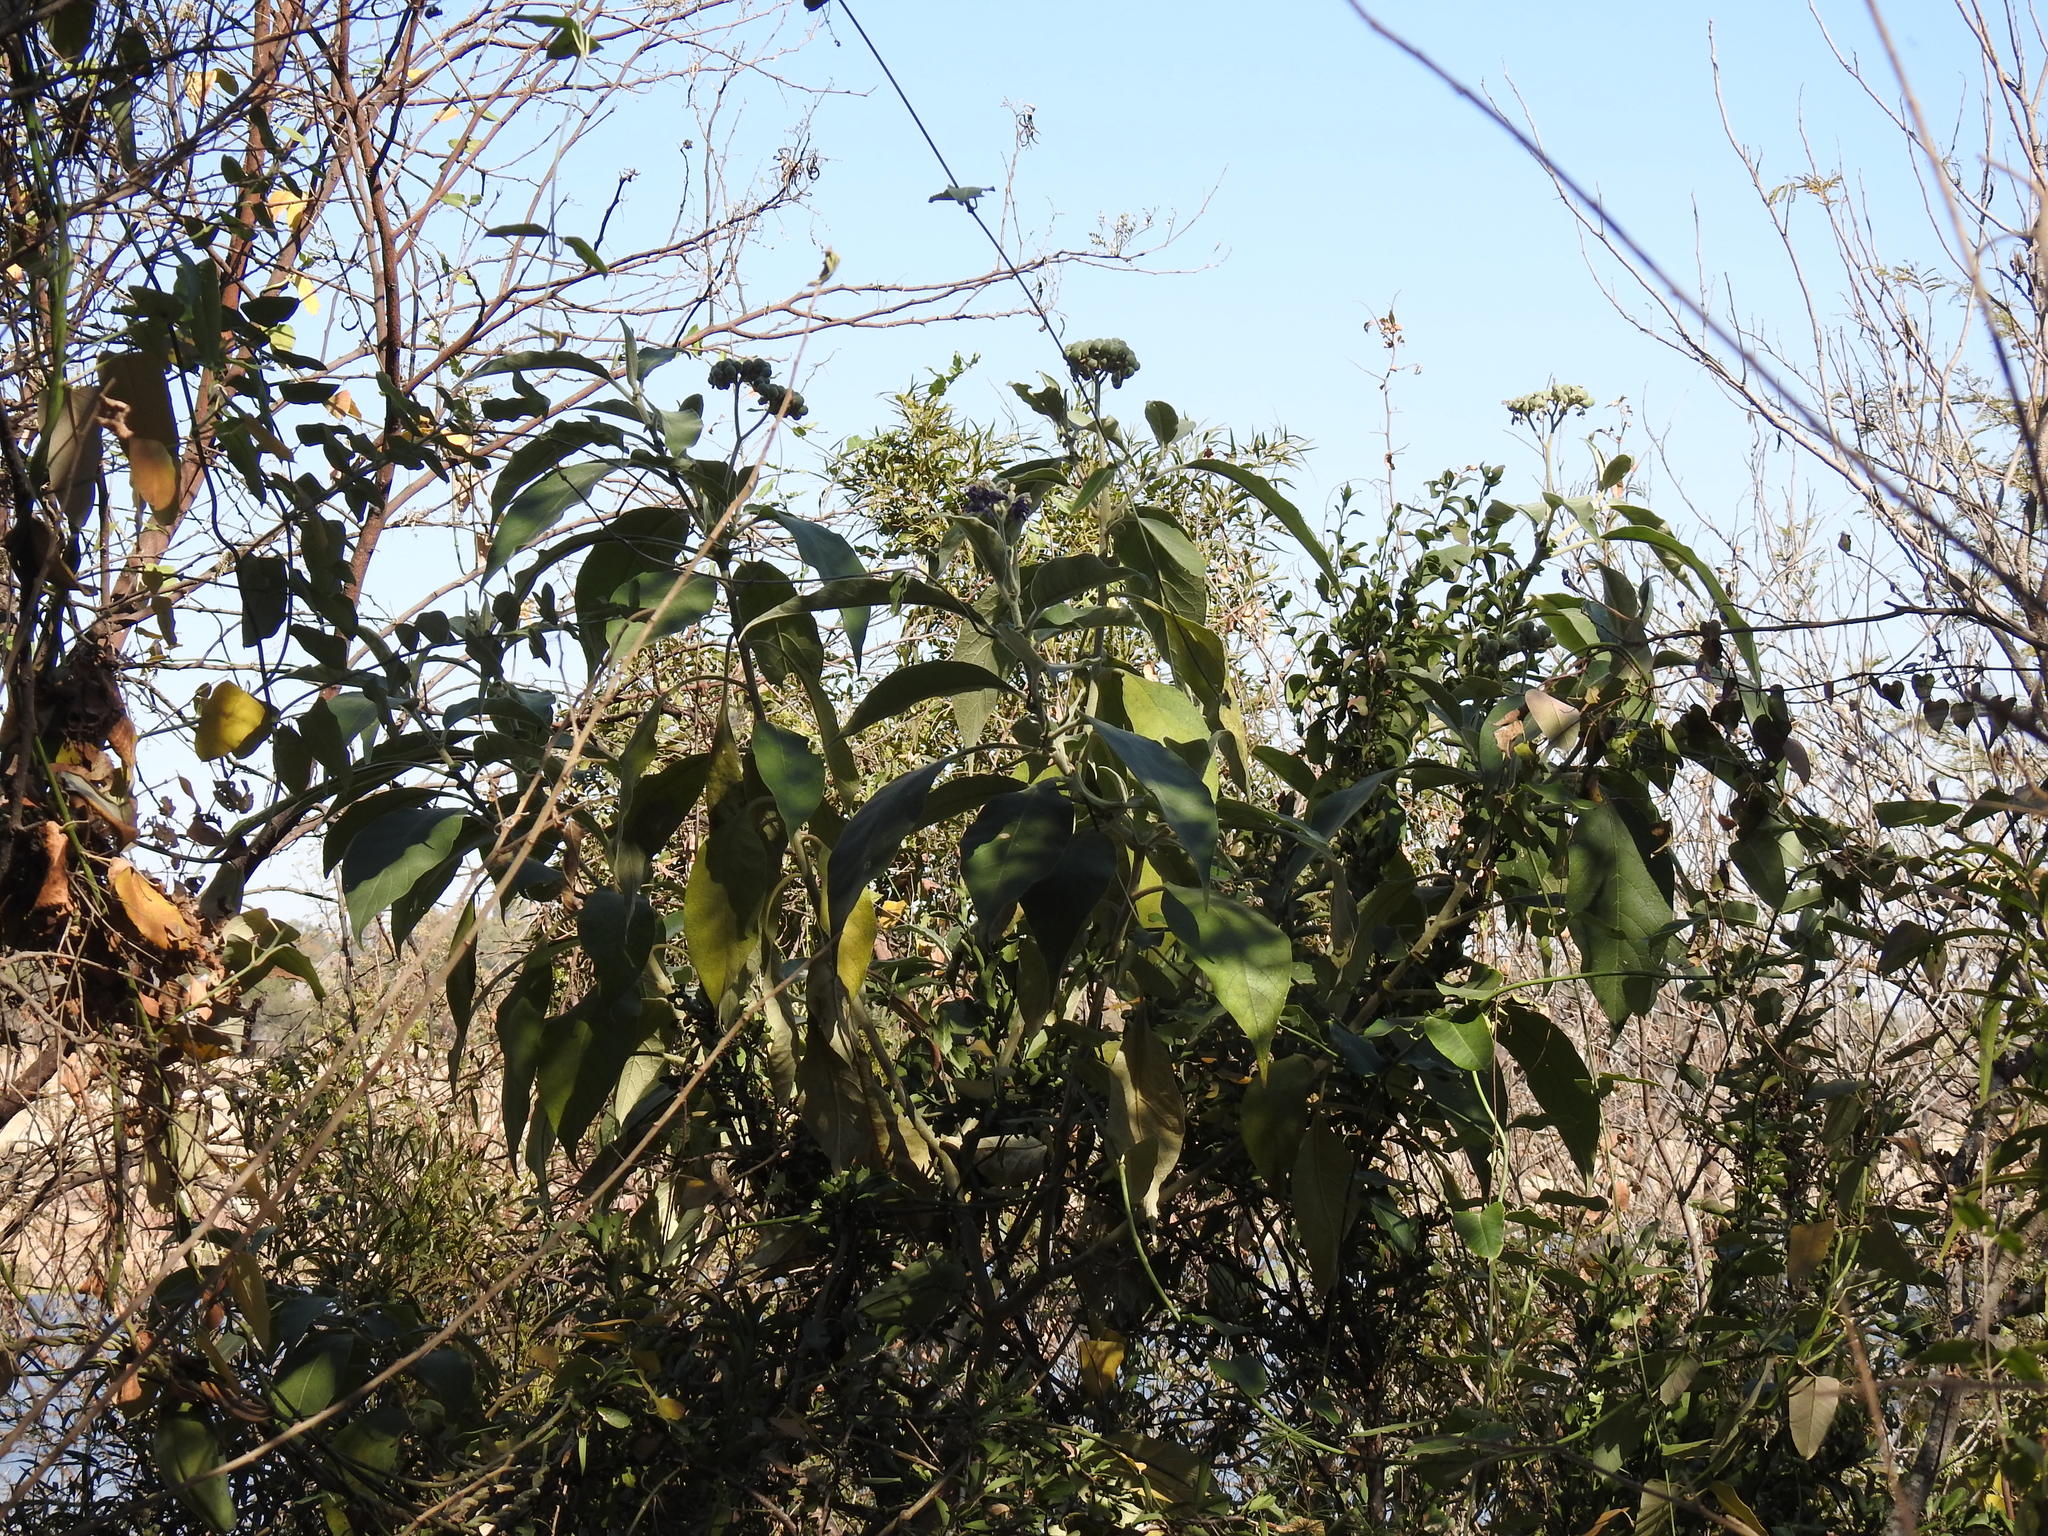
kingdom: Plantae
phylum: Tracheophyta
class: Magnoliopsida
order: Solanales
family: Solanaceae
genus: Solanum
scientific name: Solanum mauritianum
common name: Earleaf nightshade
